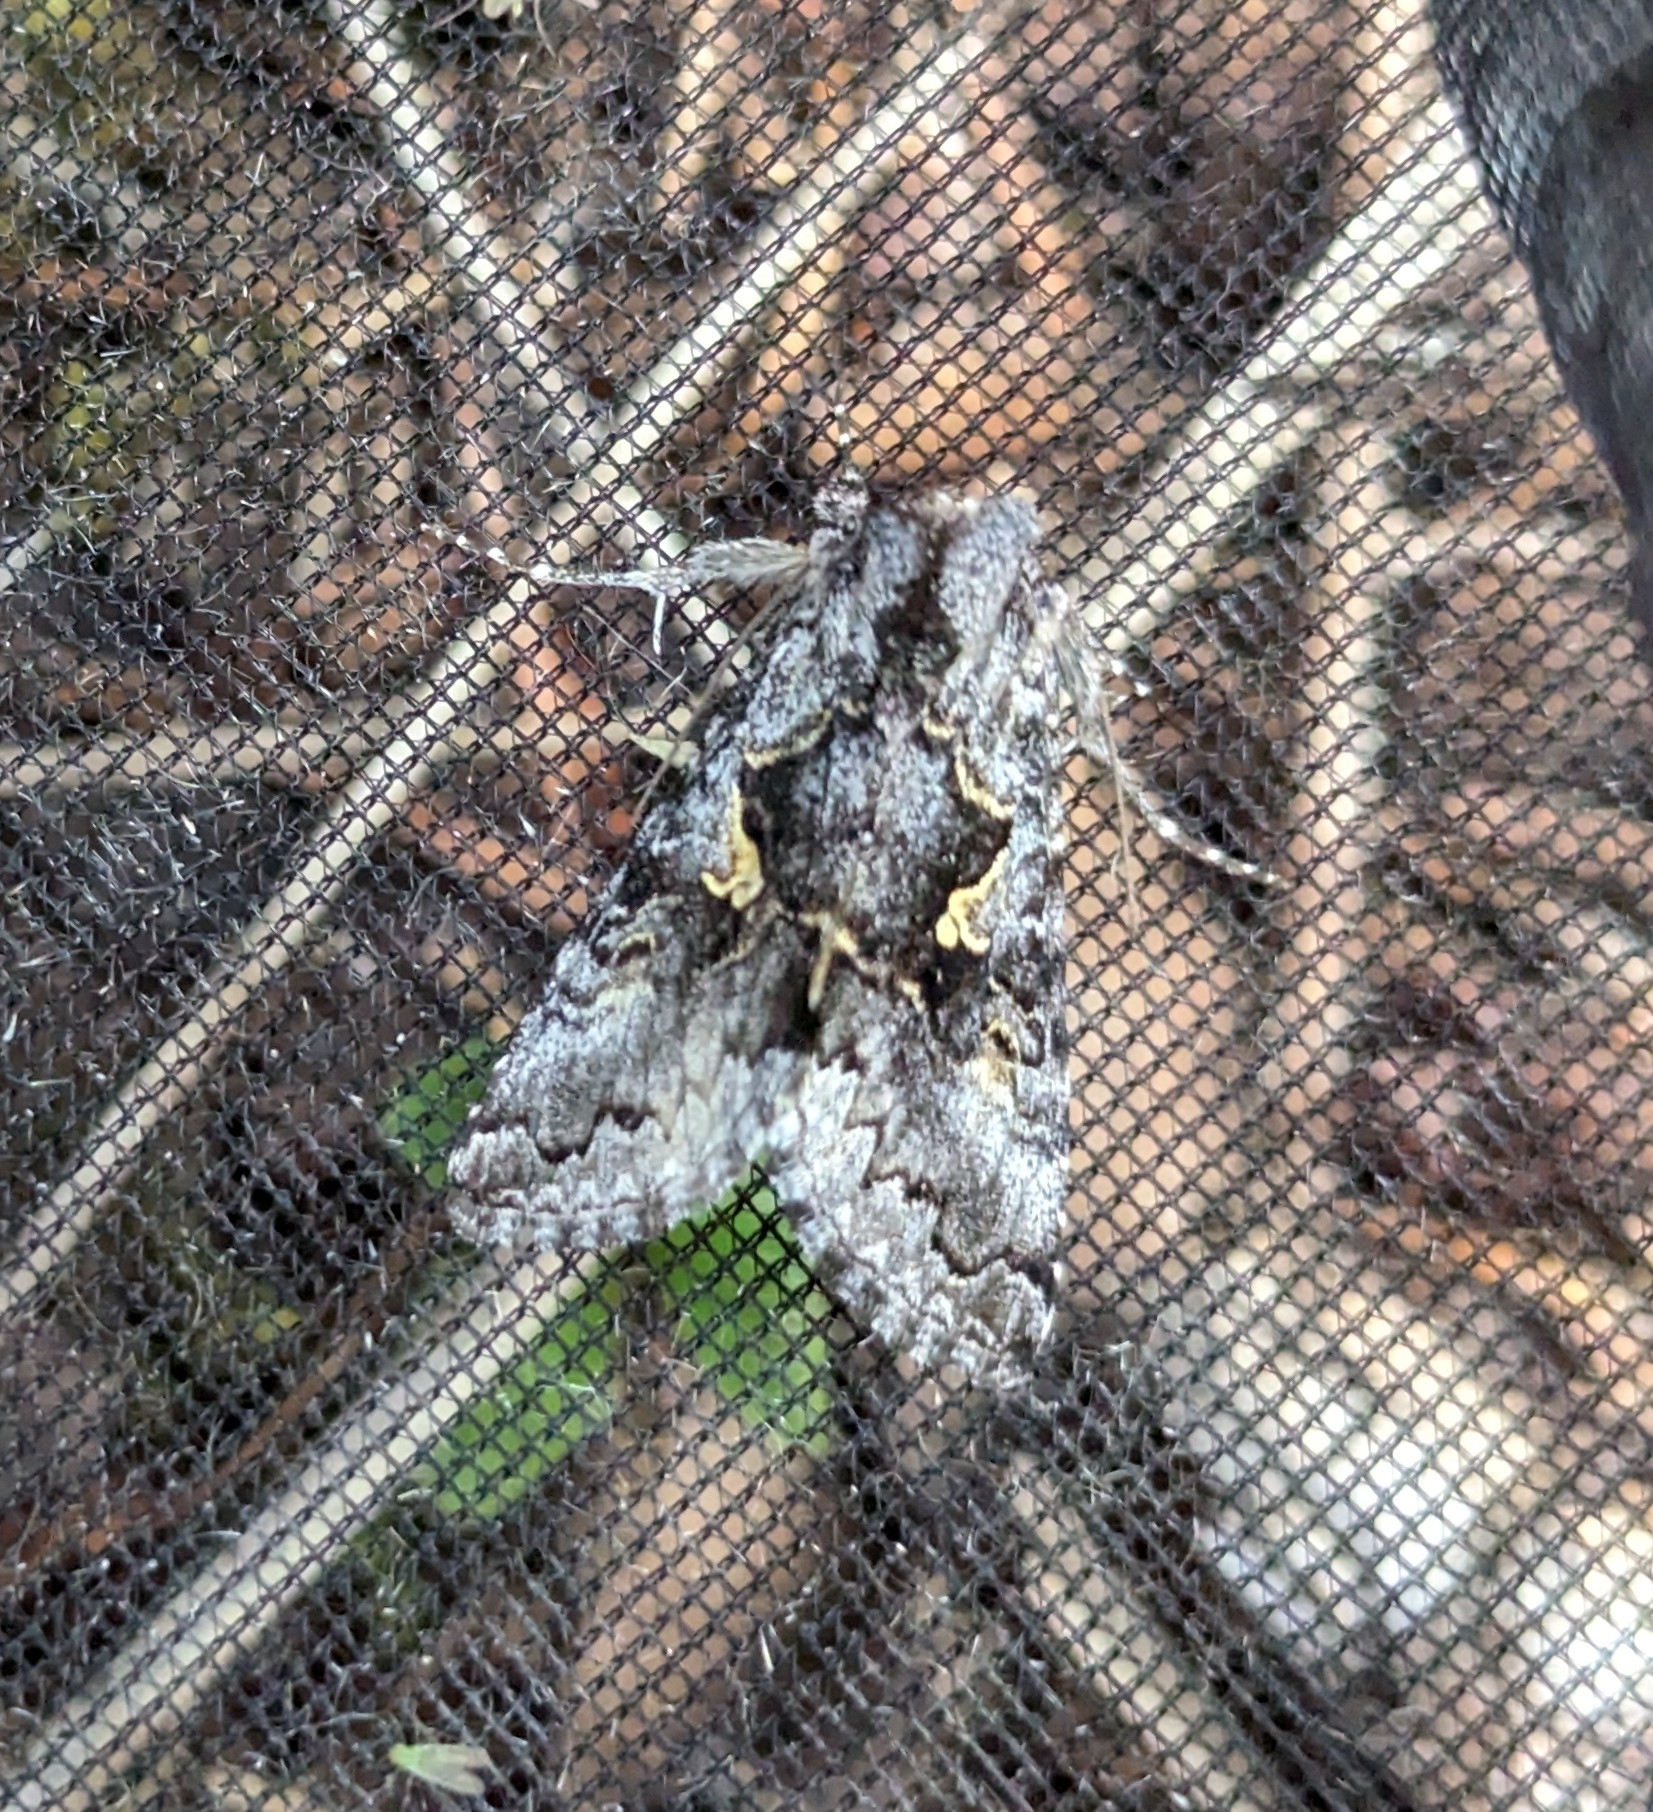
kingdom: Animalia
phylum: Arthropoda
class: Insecta
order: Lepidoptera
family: Noctuidae
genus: Syngrapha
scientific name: Syngrapha celsa
